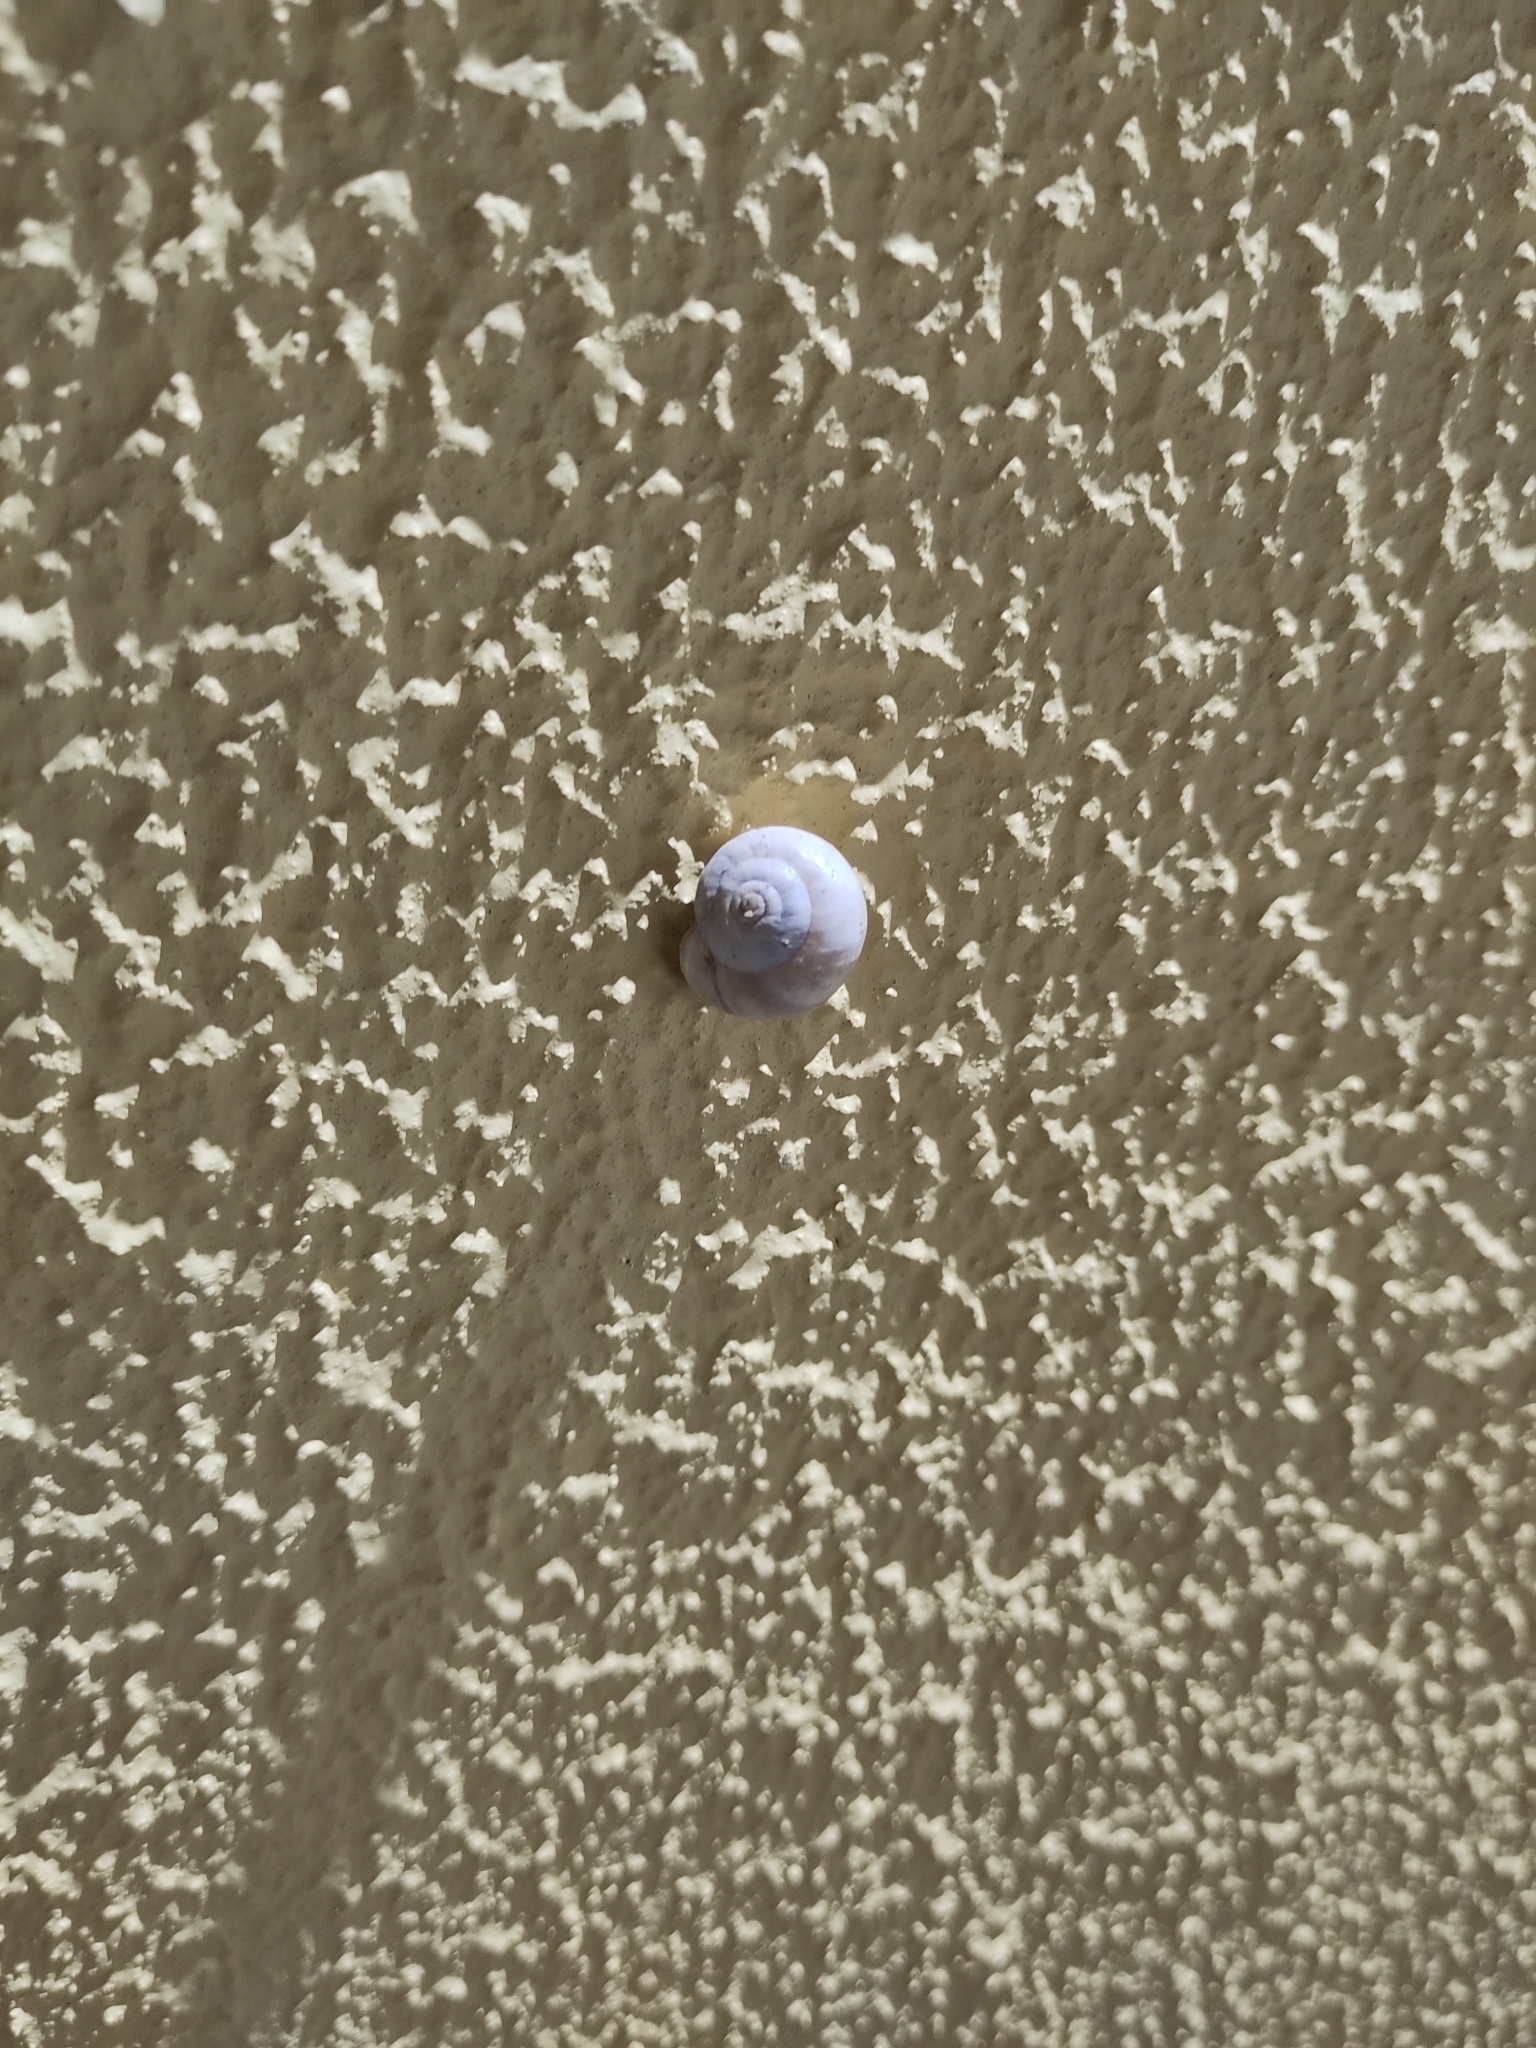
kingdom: Animalia
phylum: Mollusca
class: Gastropoda
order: Stylommatophora
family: Helicidae
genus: Theba
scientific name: Theba pisana
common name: White snail
